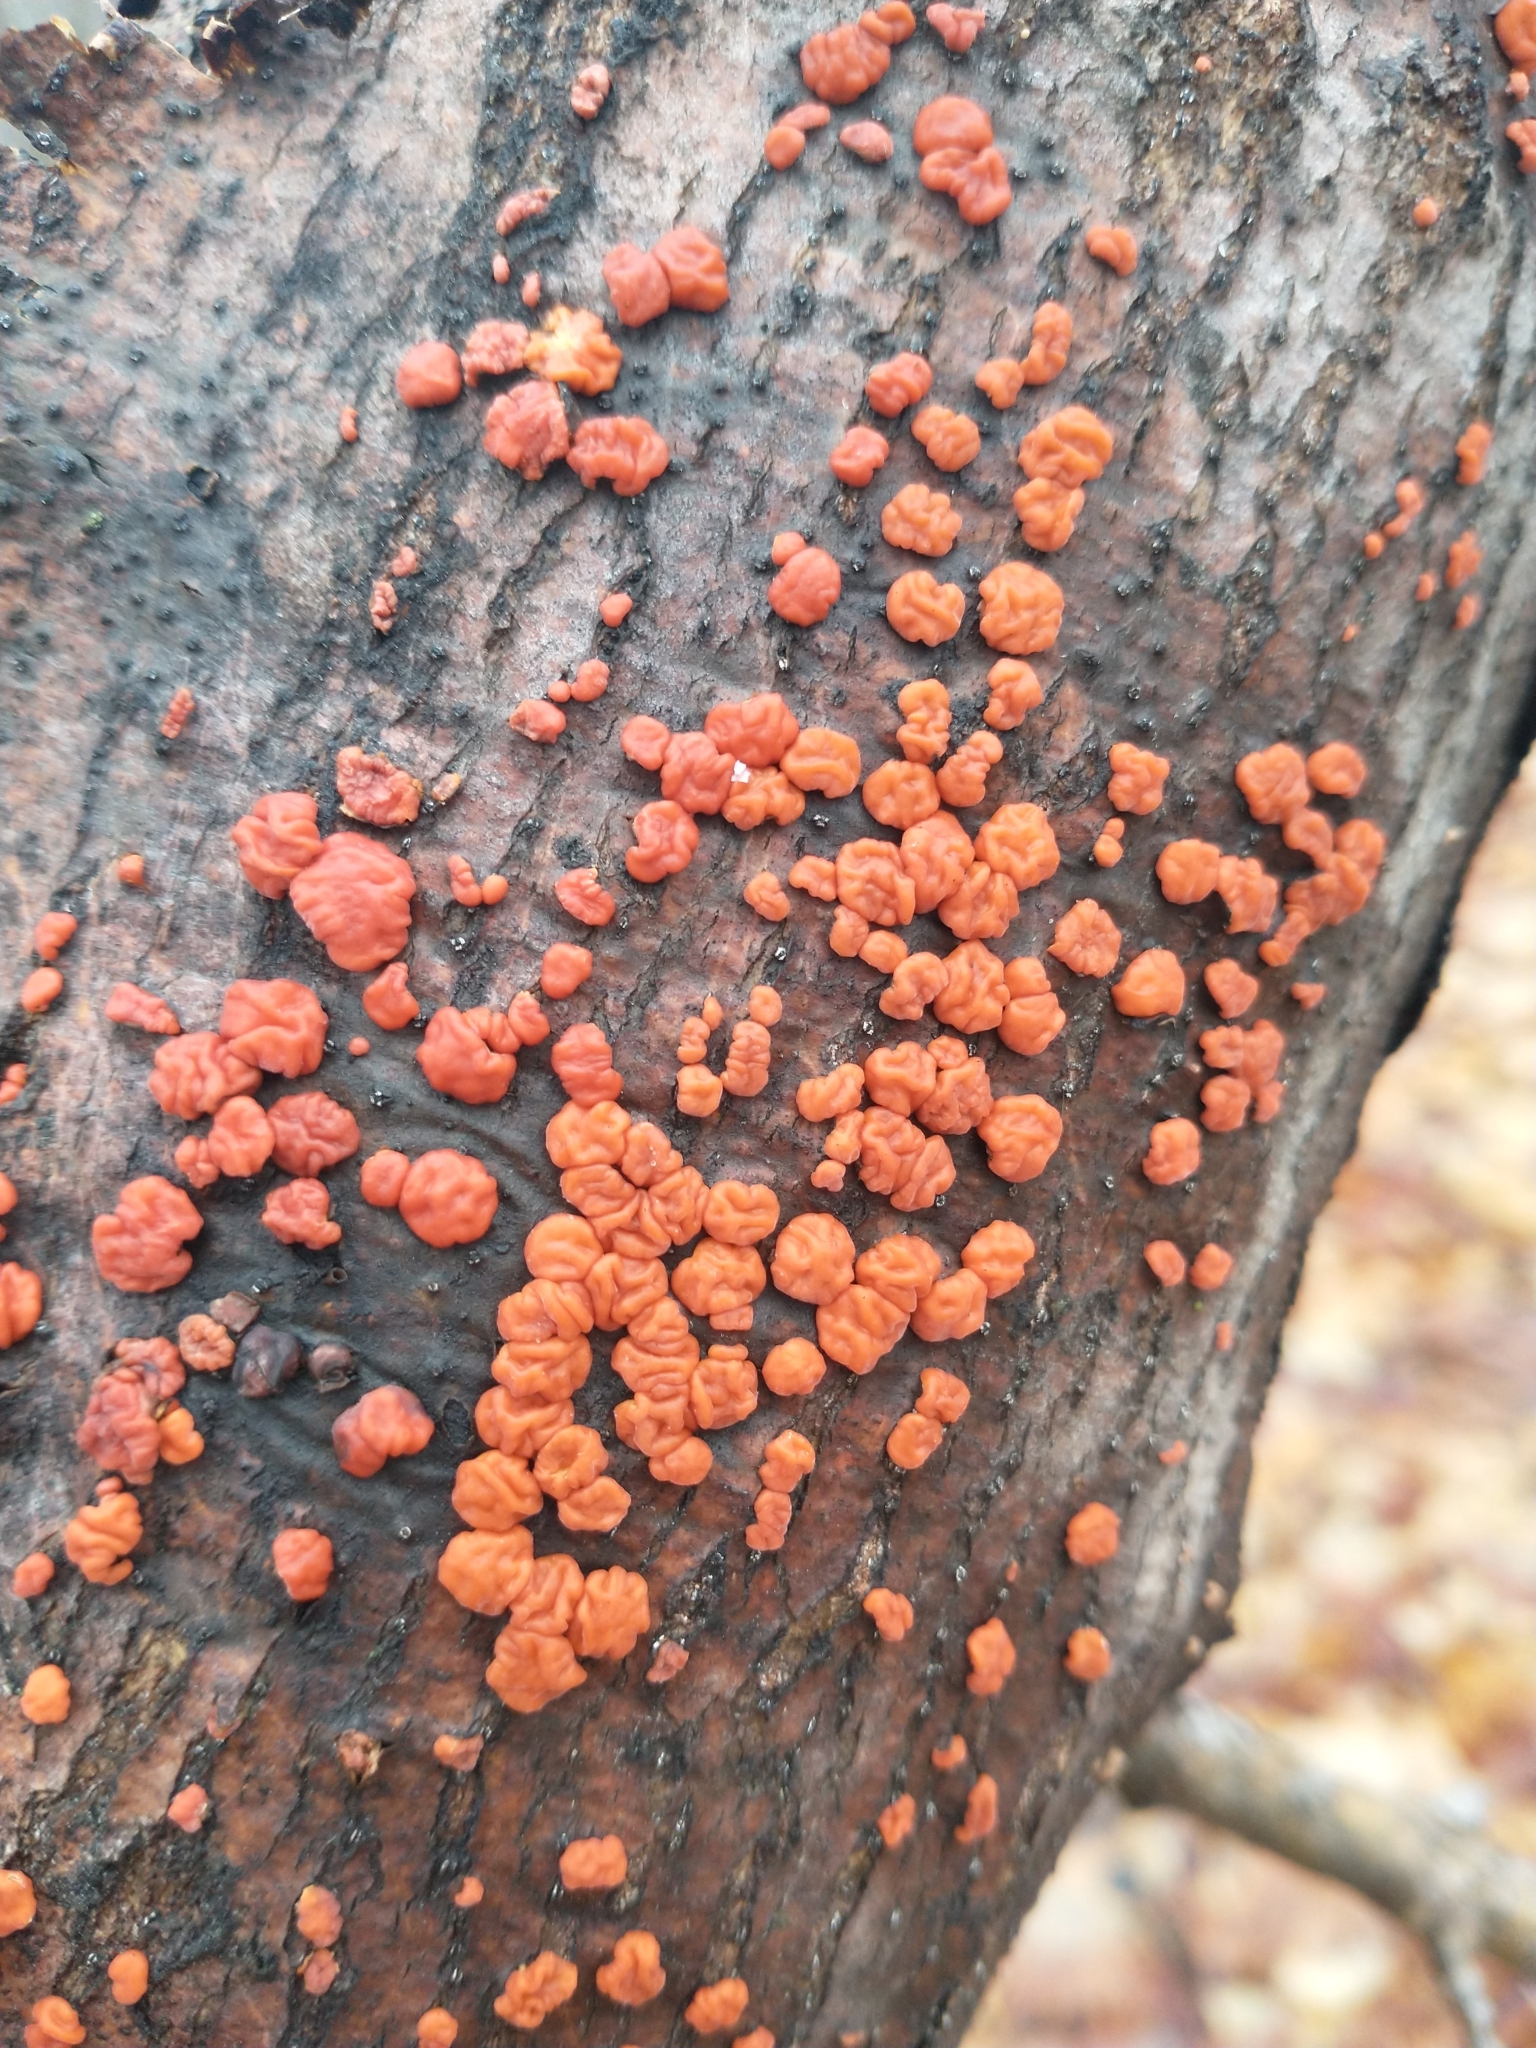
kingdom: Fungi
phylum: Basidiomycota
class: Agaricomycetes
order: Russulales
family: Peniophoraceae
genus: Peniophora
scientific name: Peniophora rufa
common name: Red tree brain fungus
